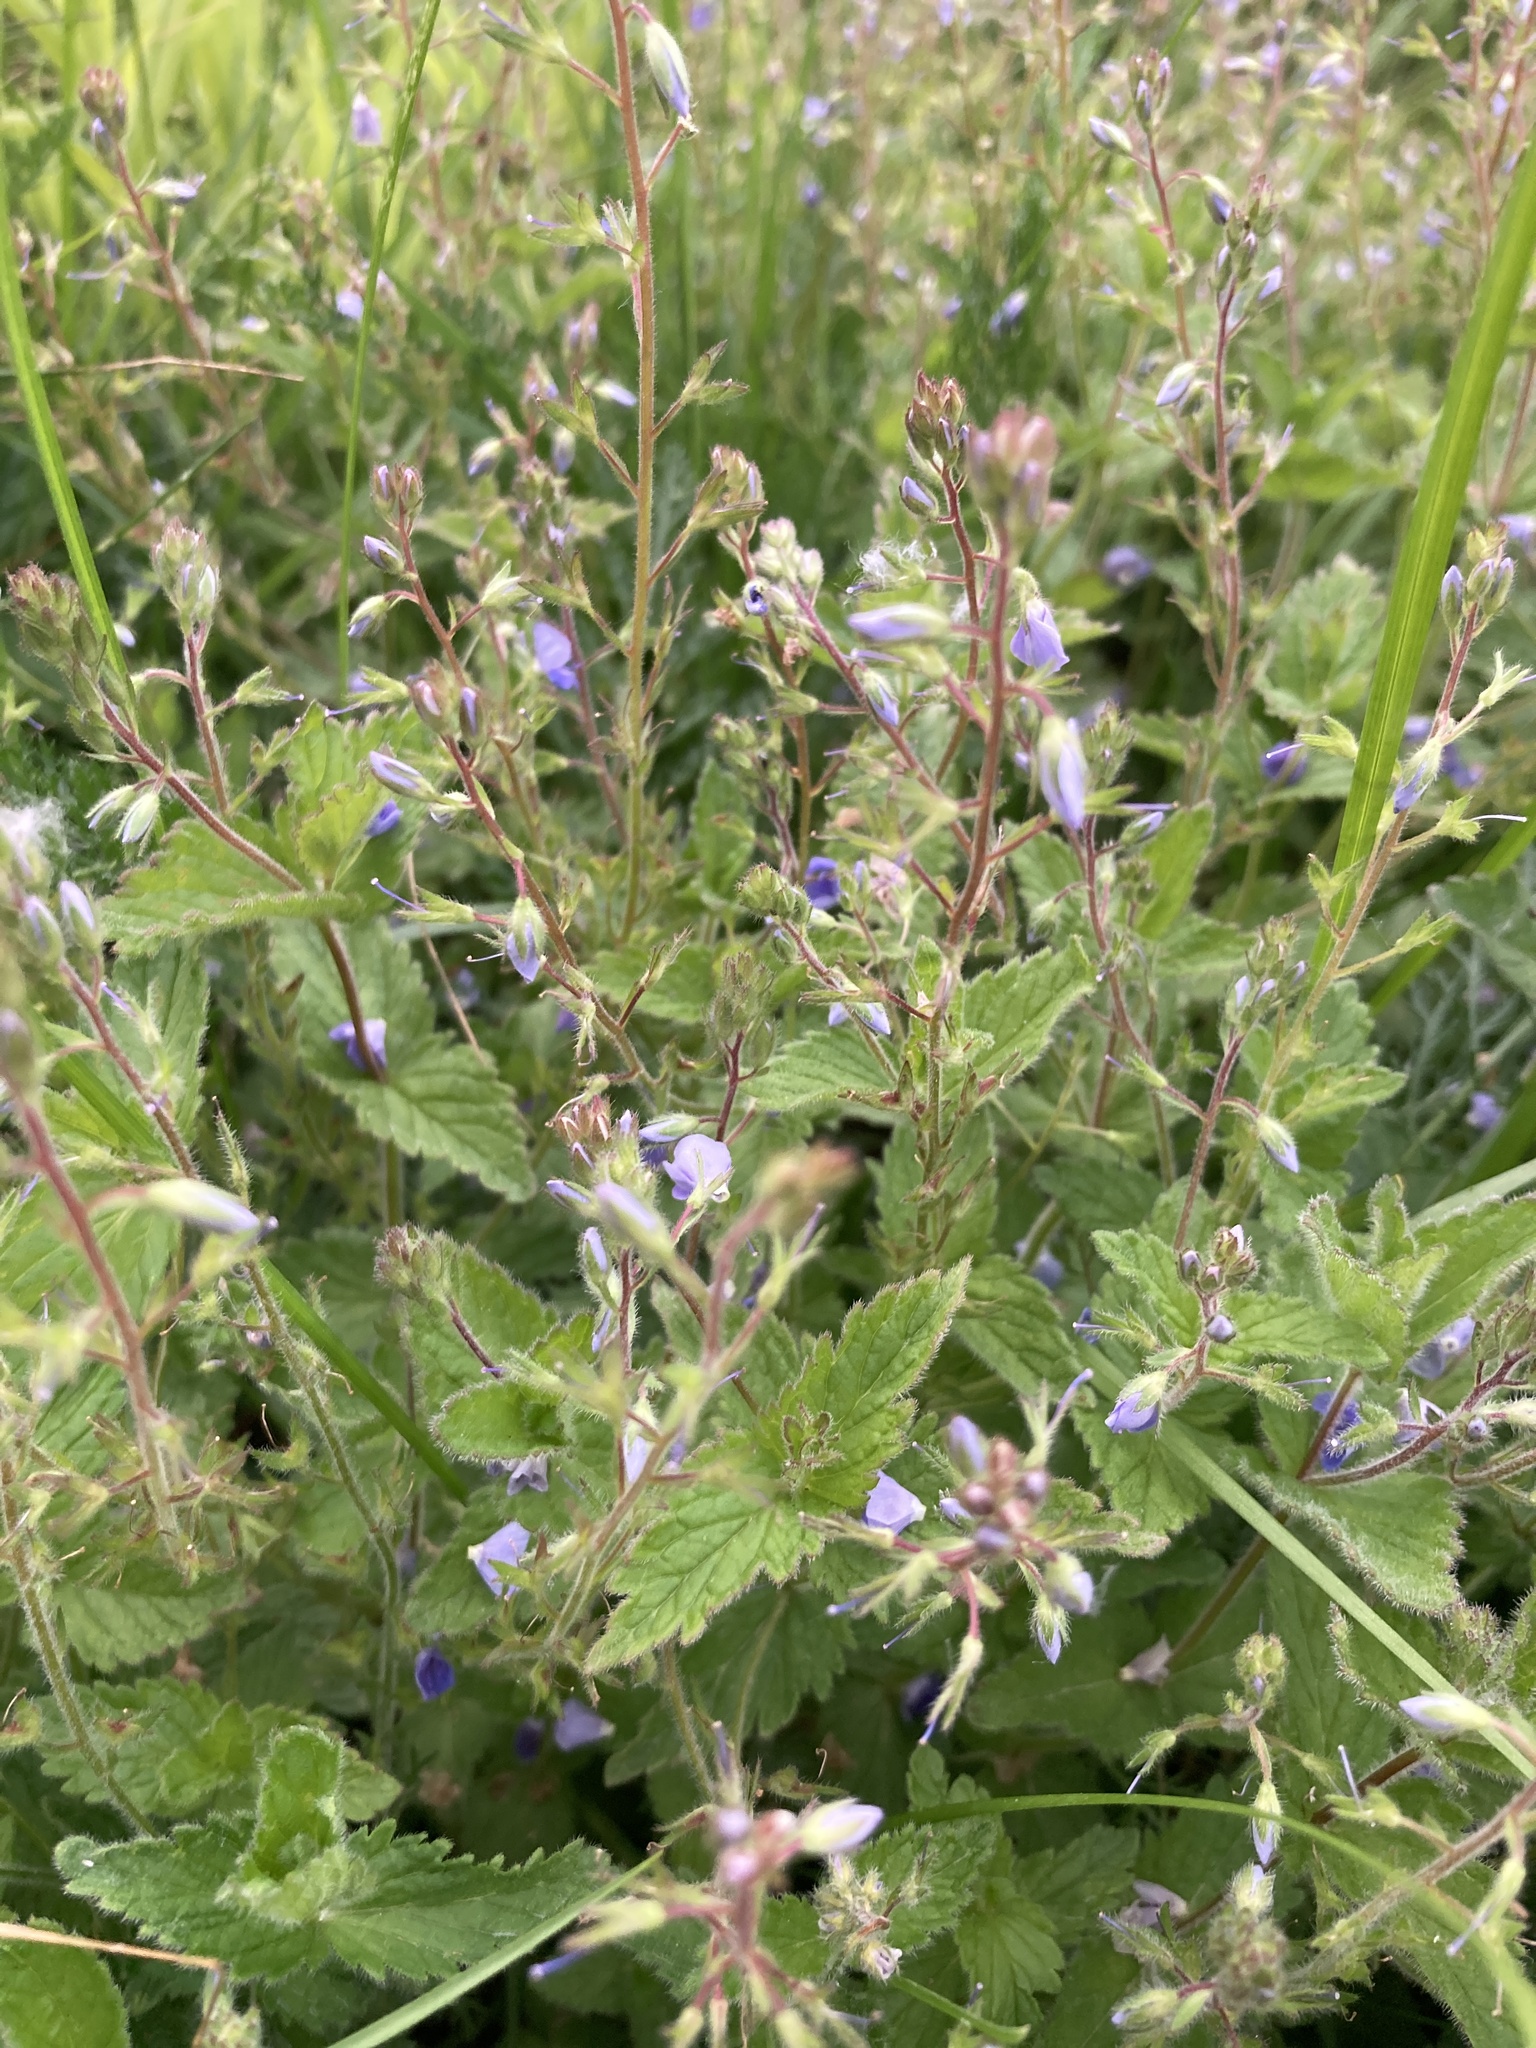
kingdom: Plantae
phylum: Tracheophyta
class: Magnoliopsida
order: Lamiales
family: Plantaginaceae
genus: Veronica
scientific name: Veronica chamaedrys
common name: Germander speedwell
